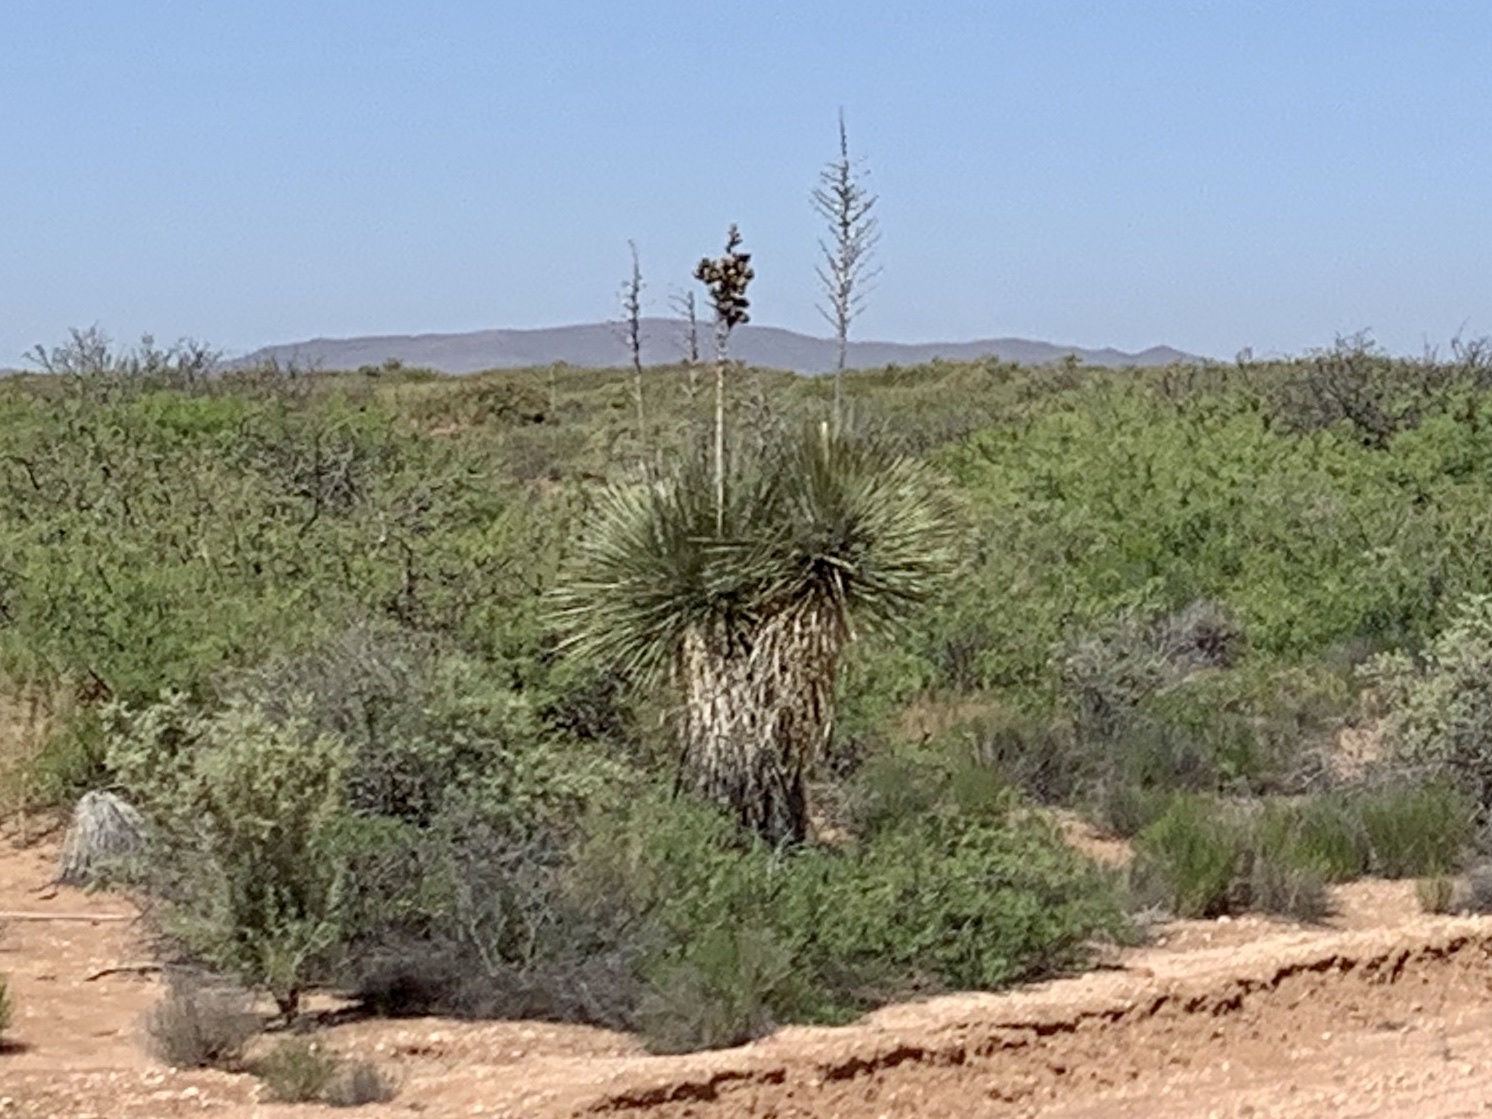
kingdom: Plantae
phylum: Tracheophyta
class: Liliopsida
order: Asparagales
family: Asparagaceae
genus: Yucca
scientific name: Yucca elata
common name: Palmella
